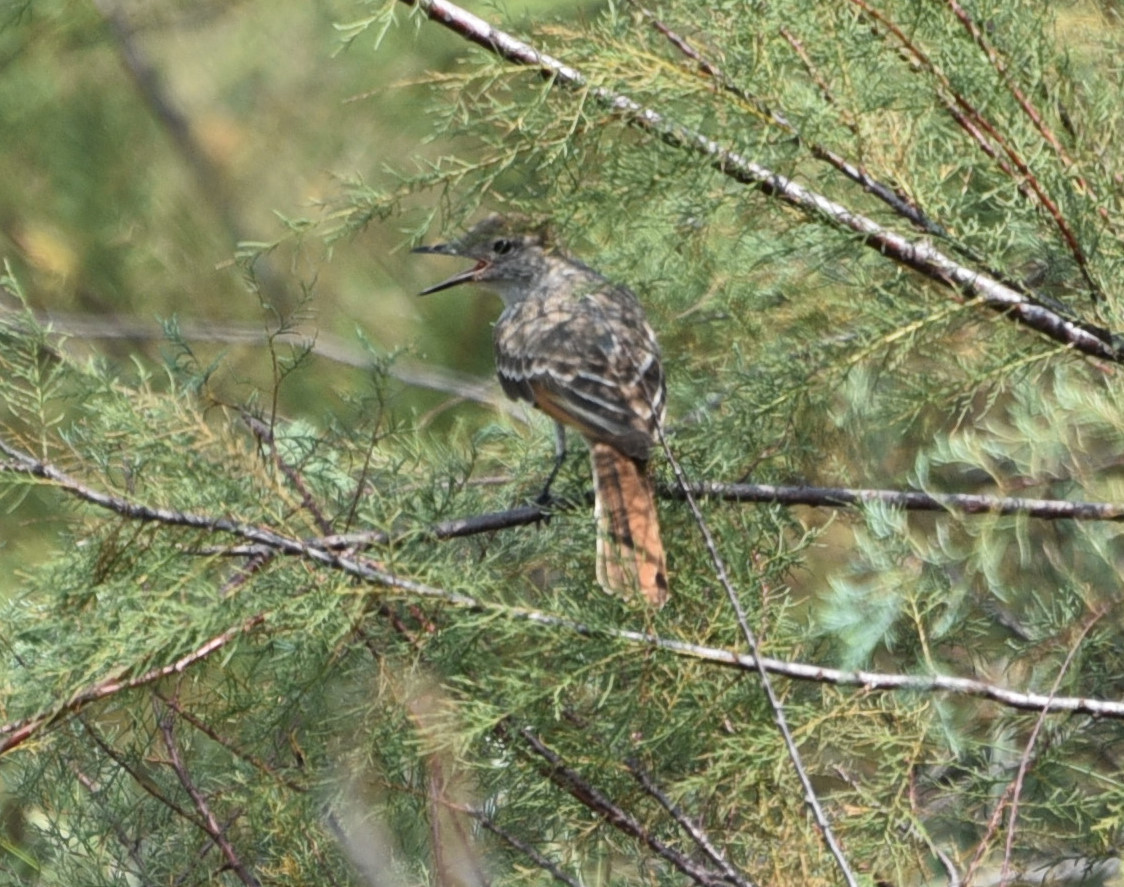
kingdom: Animalia
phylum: Chordata
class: Aves
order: Passeriformes
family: Tyrannidae
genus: Myiarchus
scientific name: Myiarchus cinerascens
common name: Ash-throated flycatcher
